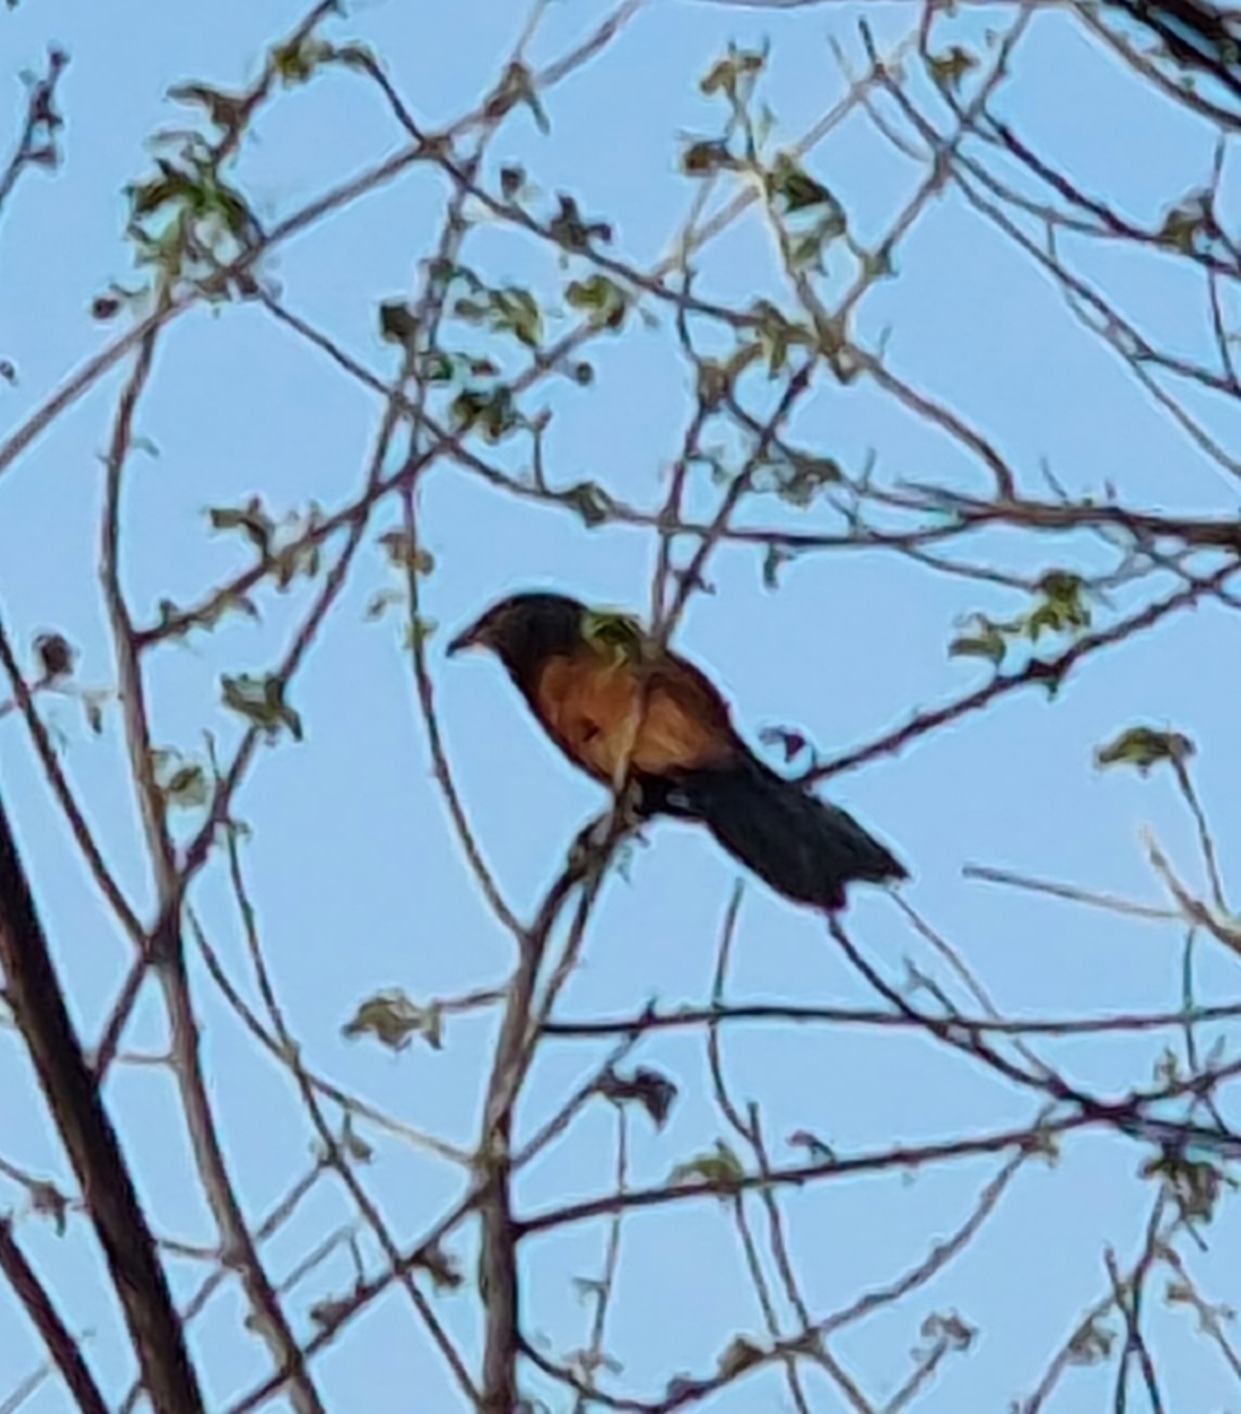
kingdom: Animalia
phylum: Chordata
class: Aves
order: Cuculiformes
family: Cuculidae
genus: Centropus
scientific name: Centropus sinensis
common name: Greater coucal
